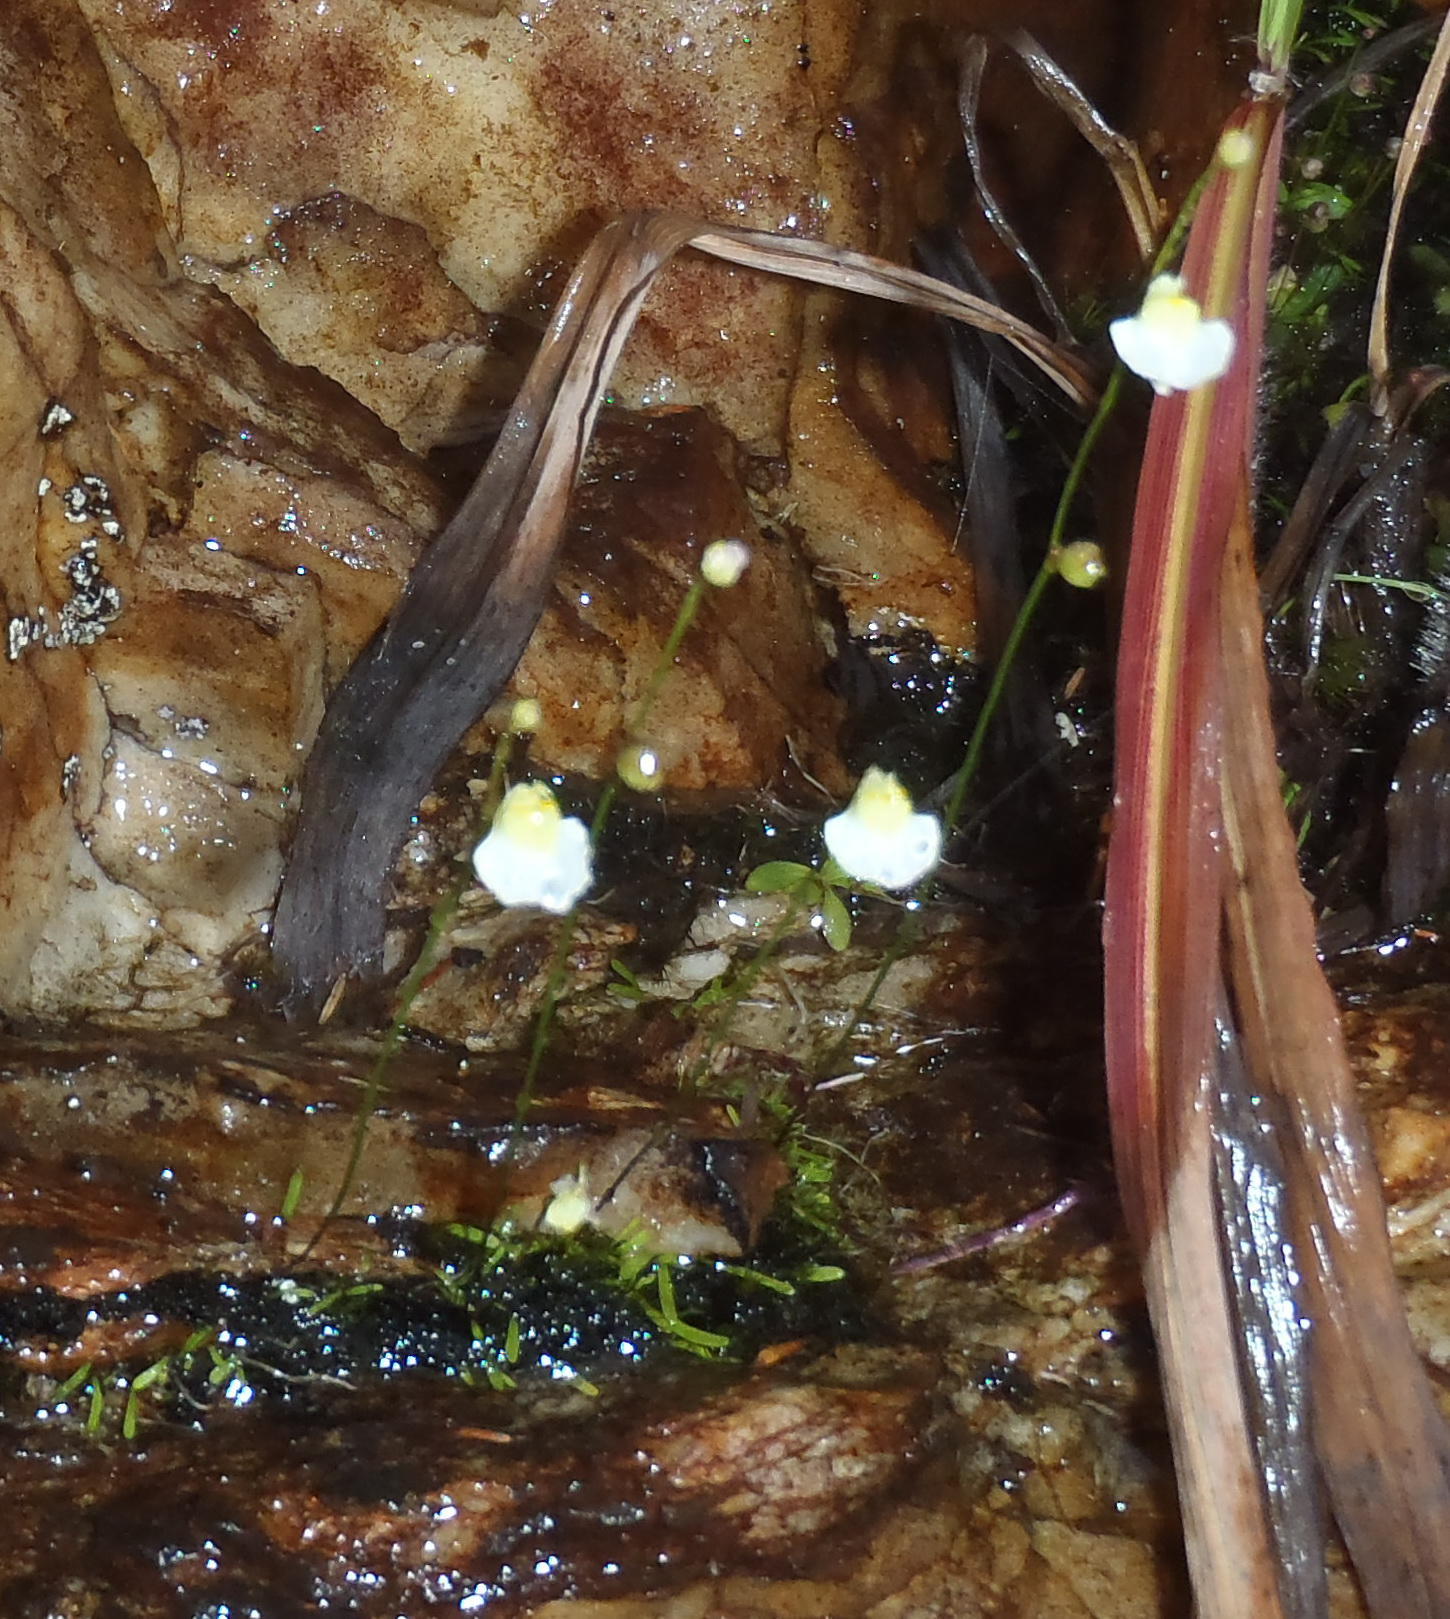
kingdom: Plantae
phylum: Tracheophyta
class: Magnoliopsida
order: Lamiales
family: Lentibulariaceae
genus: Utricularia
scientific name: Utricularia bisquamata
